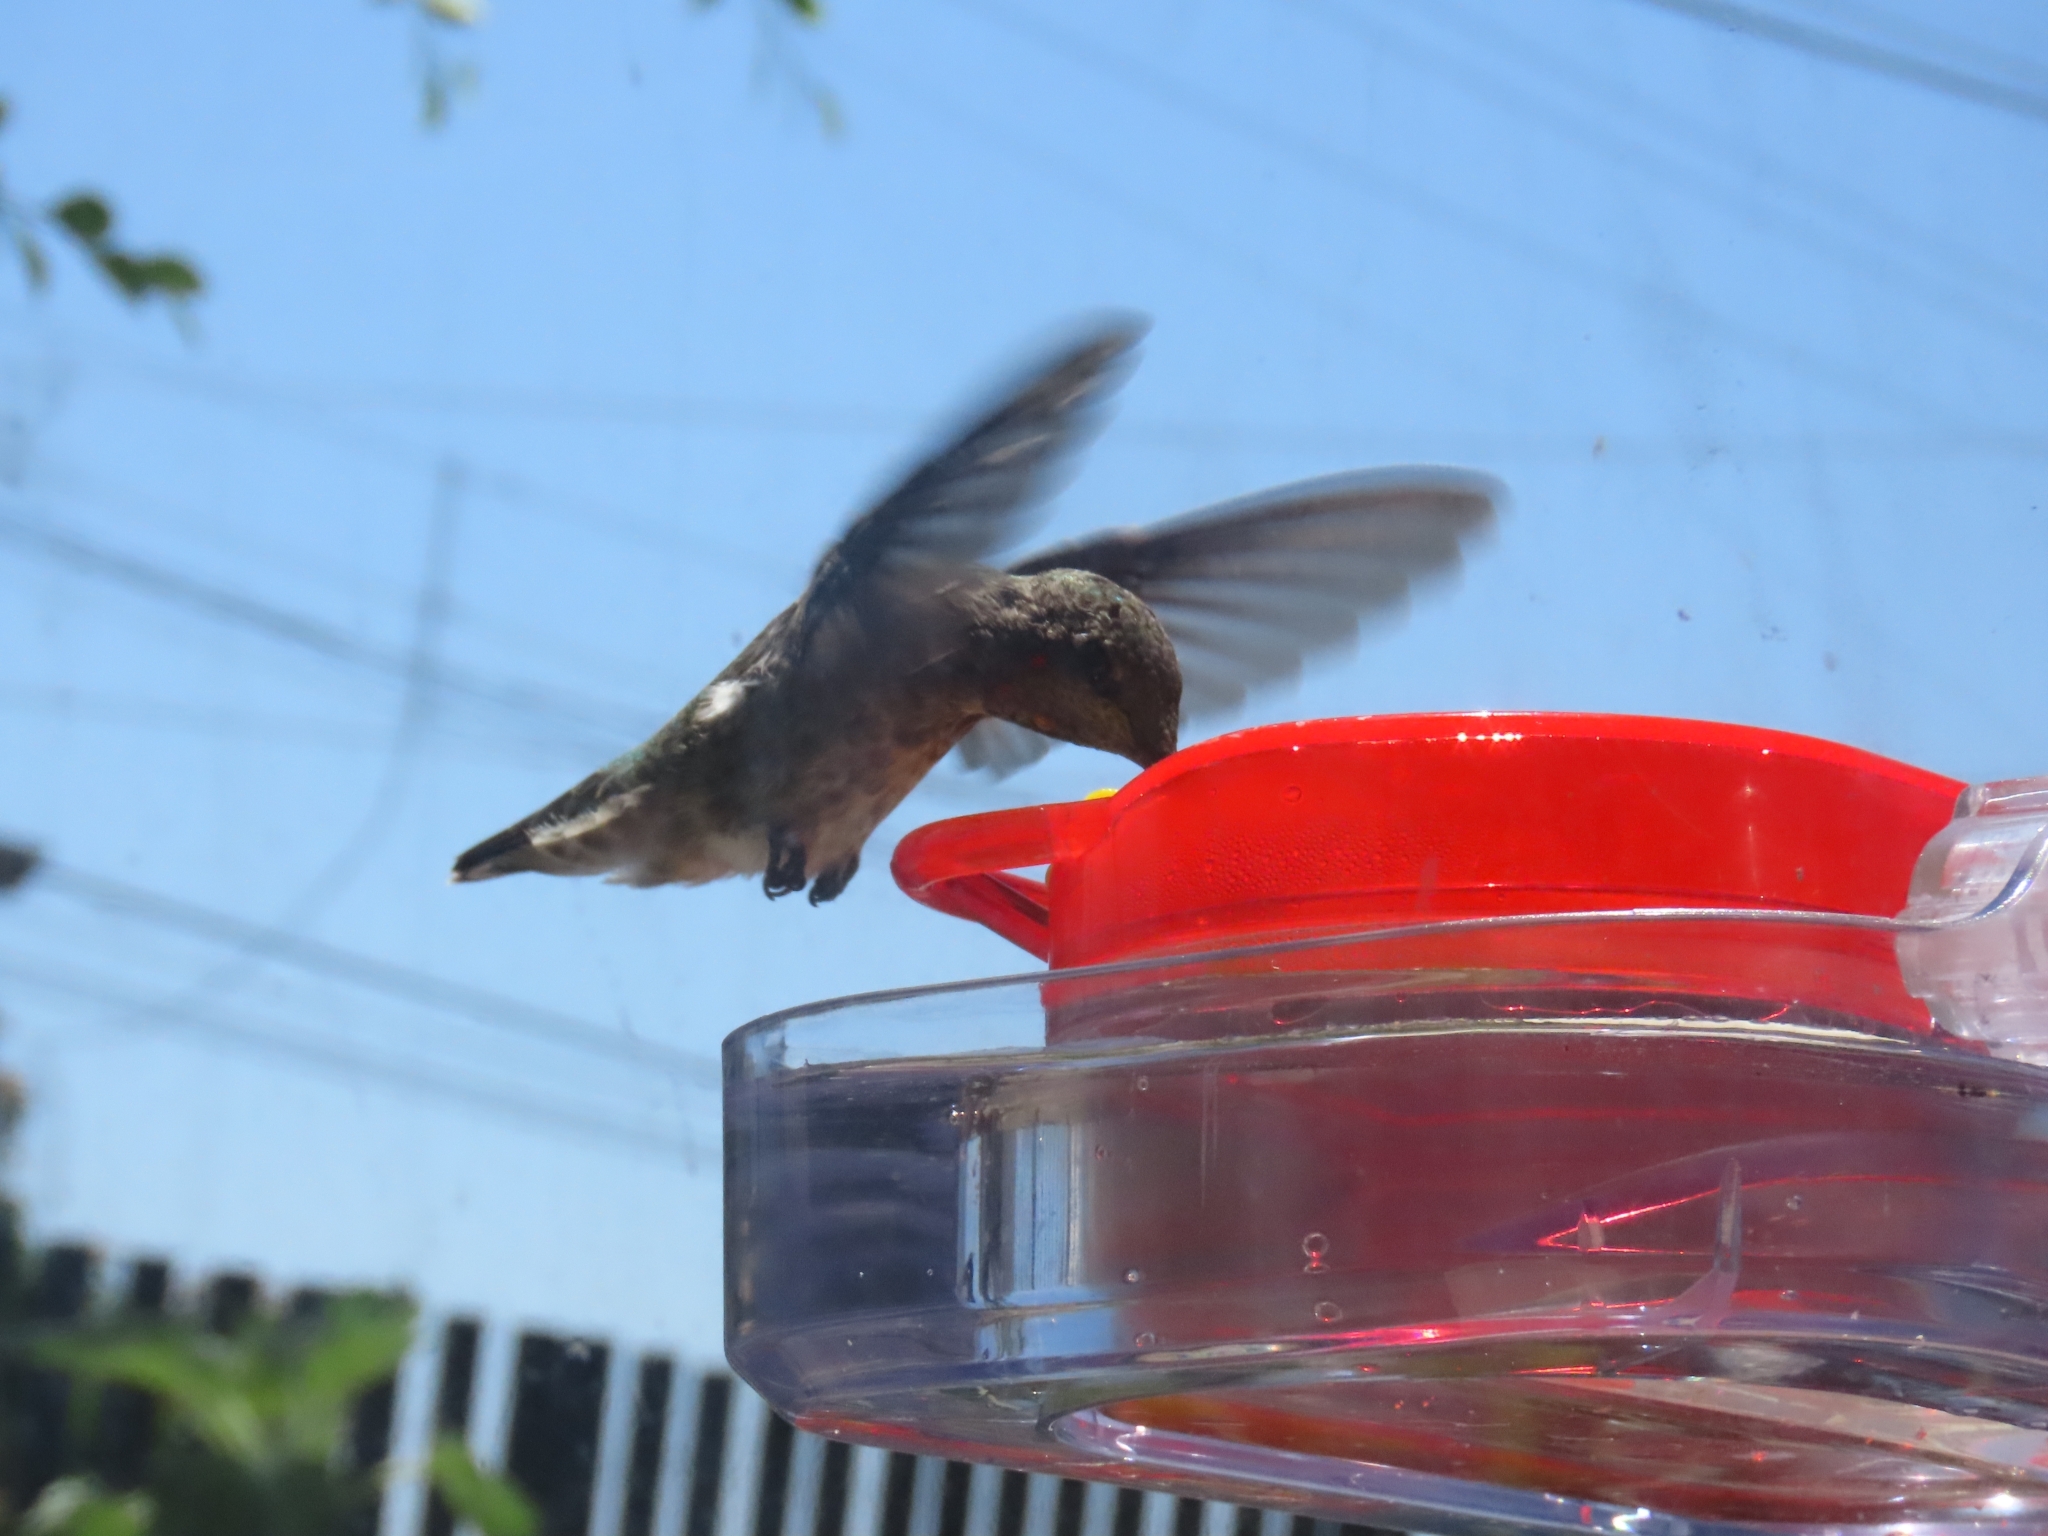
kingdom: Animalia
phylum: Chordata
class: Aves
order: Apodiformes
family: Trochilidae
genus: Calypte
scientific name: Calypte anna
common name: Anna's hummingbird
